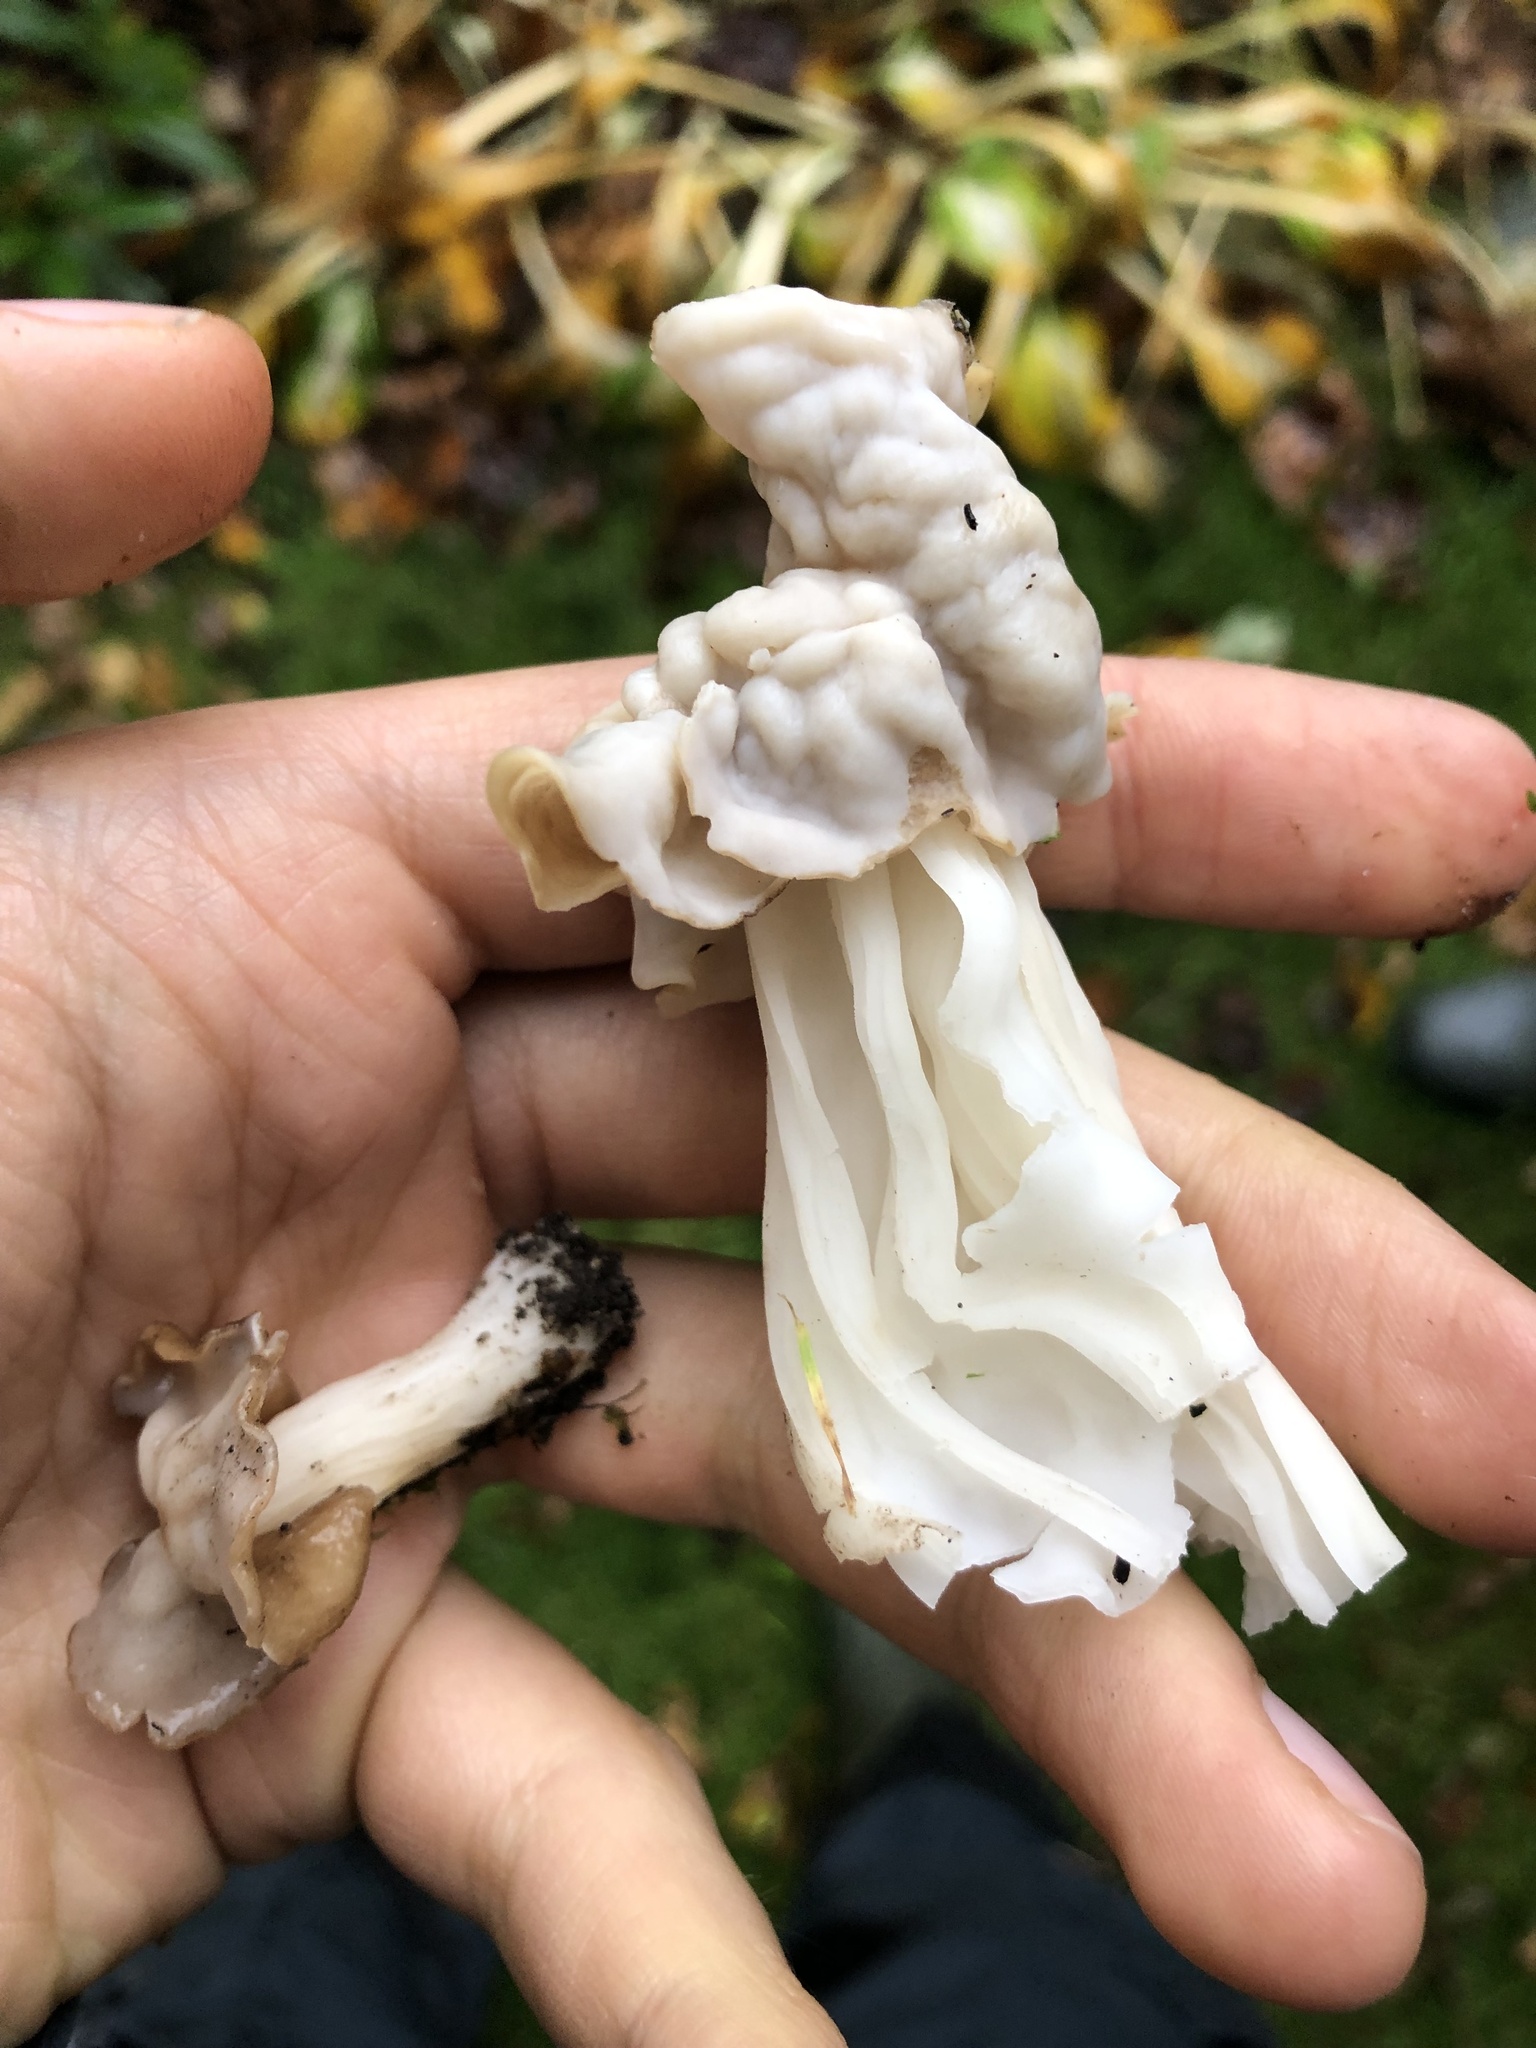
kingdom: Fungi
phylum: Ascomycota
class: Pezizomycetes
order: Pezizales
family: Helvellaceae
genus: Helvella
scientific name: Helvella crispa
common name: White saddle
